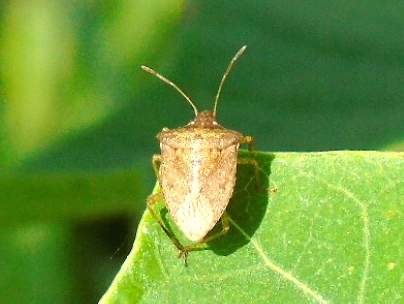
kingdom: Animalia
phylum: Arthropoda
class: Insecta
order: Hemiptera
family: Pentatomidae
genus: Euschistus
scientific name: Euschistus
